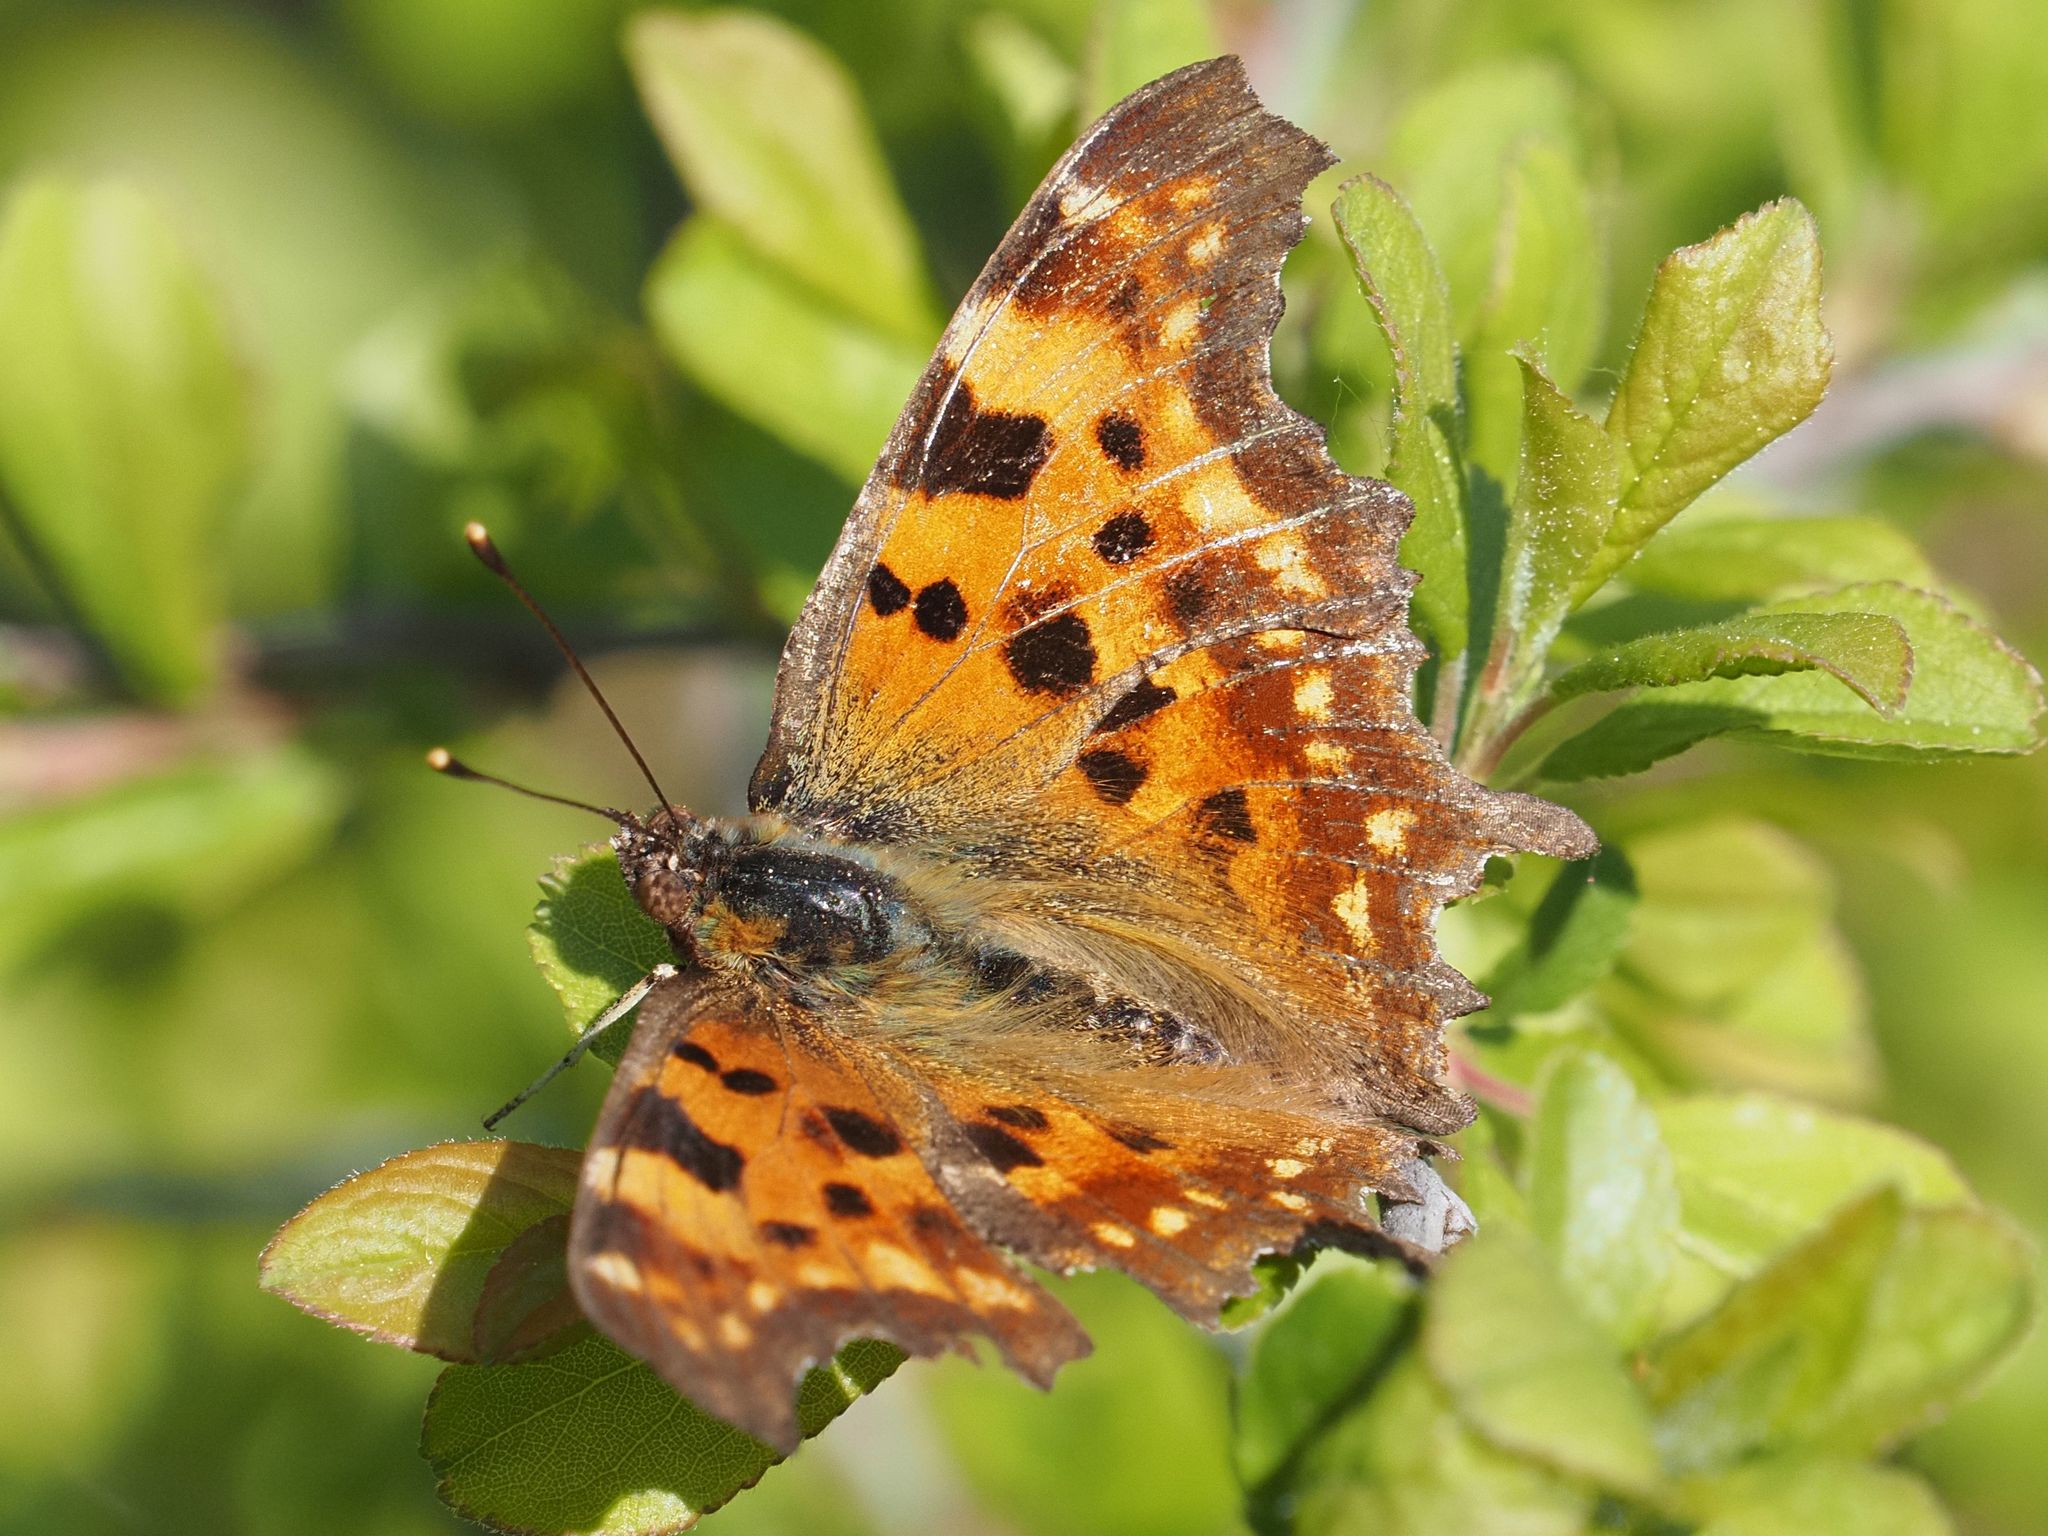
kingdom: Animalia
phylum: Arthropoda
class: Insecta
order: Lepidoptera
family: Nymphalidae
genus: Polygonia
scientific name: Polygonia c-album
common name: Comma
